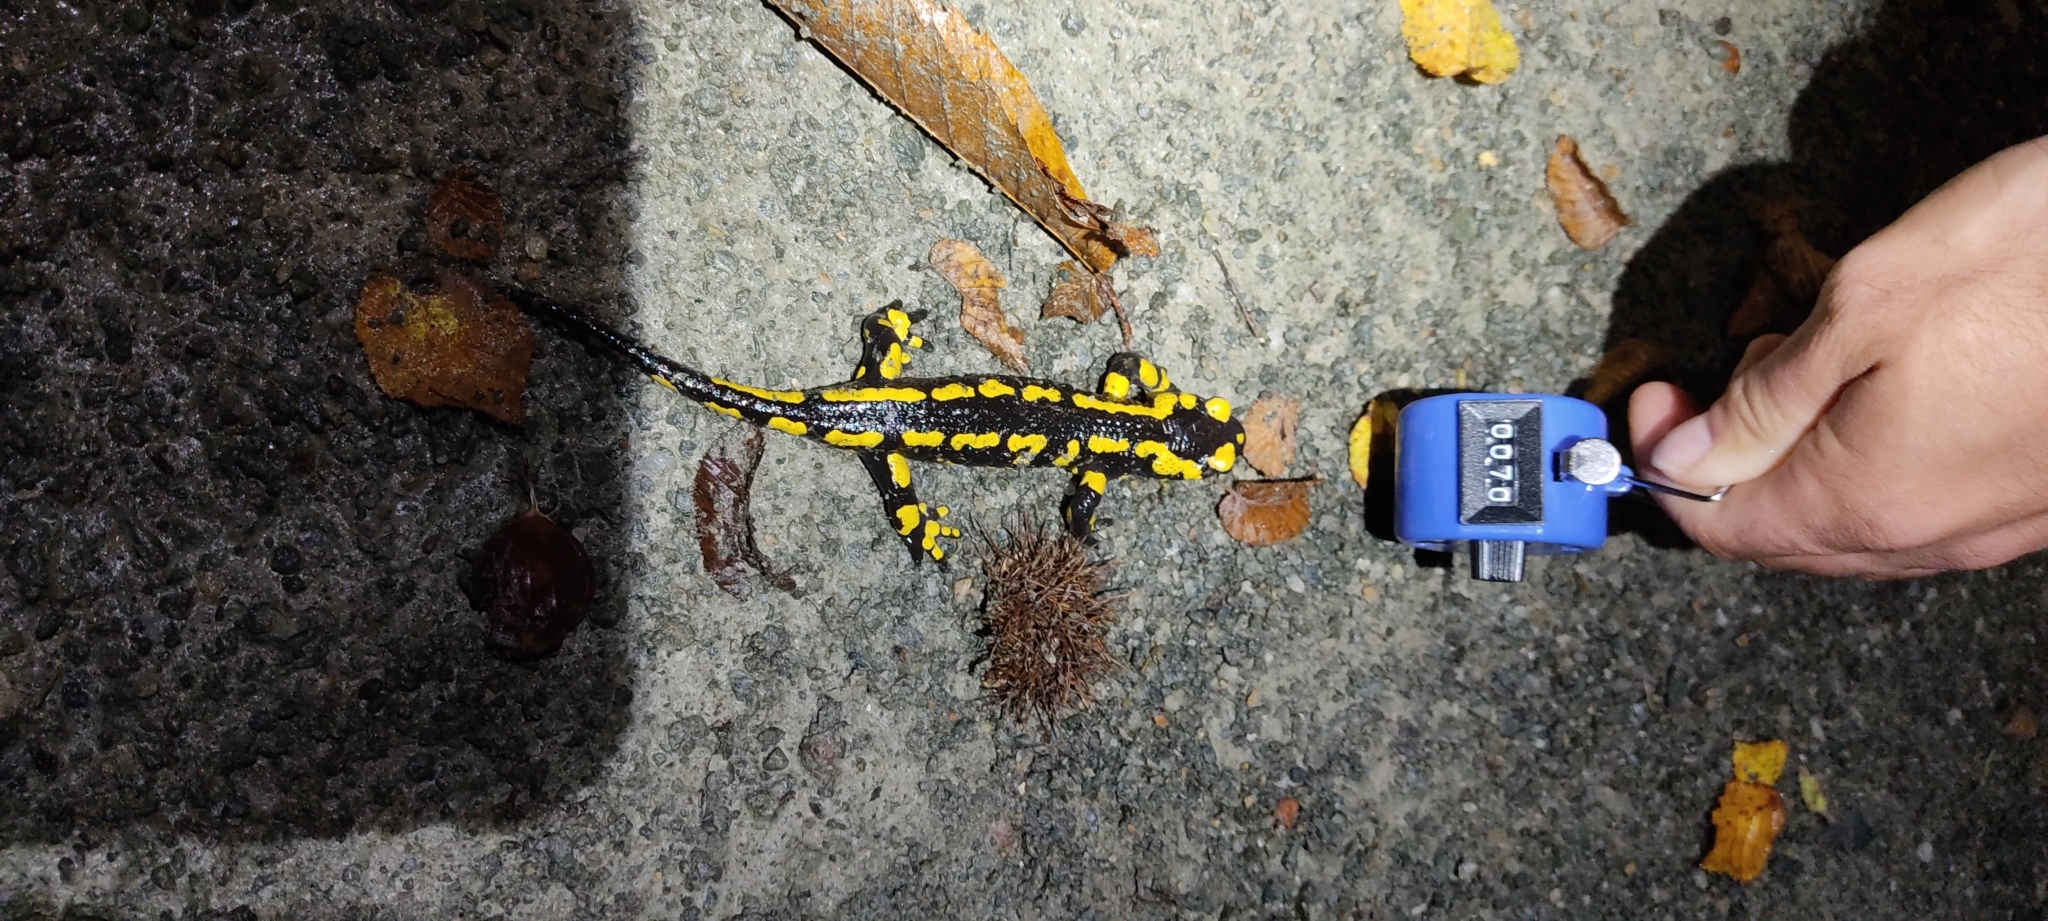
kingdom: Animalia
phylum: Chordata
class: Amphibia
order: Caudata
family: Salamandridae
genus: Salamandra
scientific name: Salamandra salamandra
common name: Fire salamander
